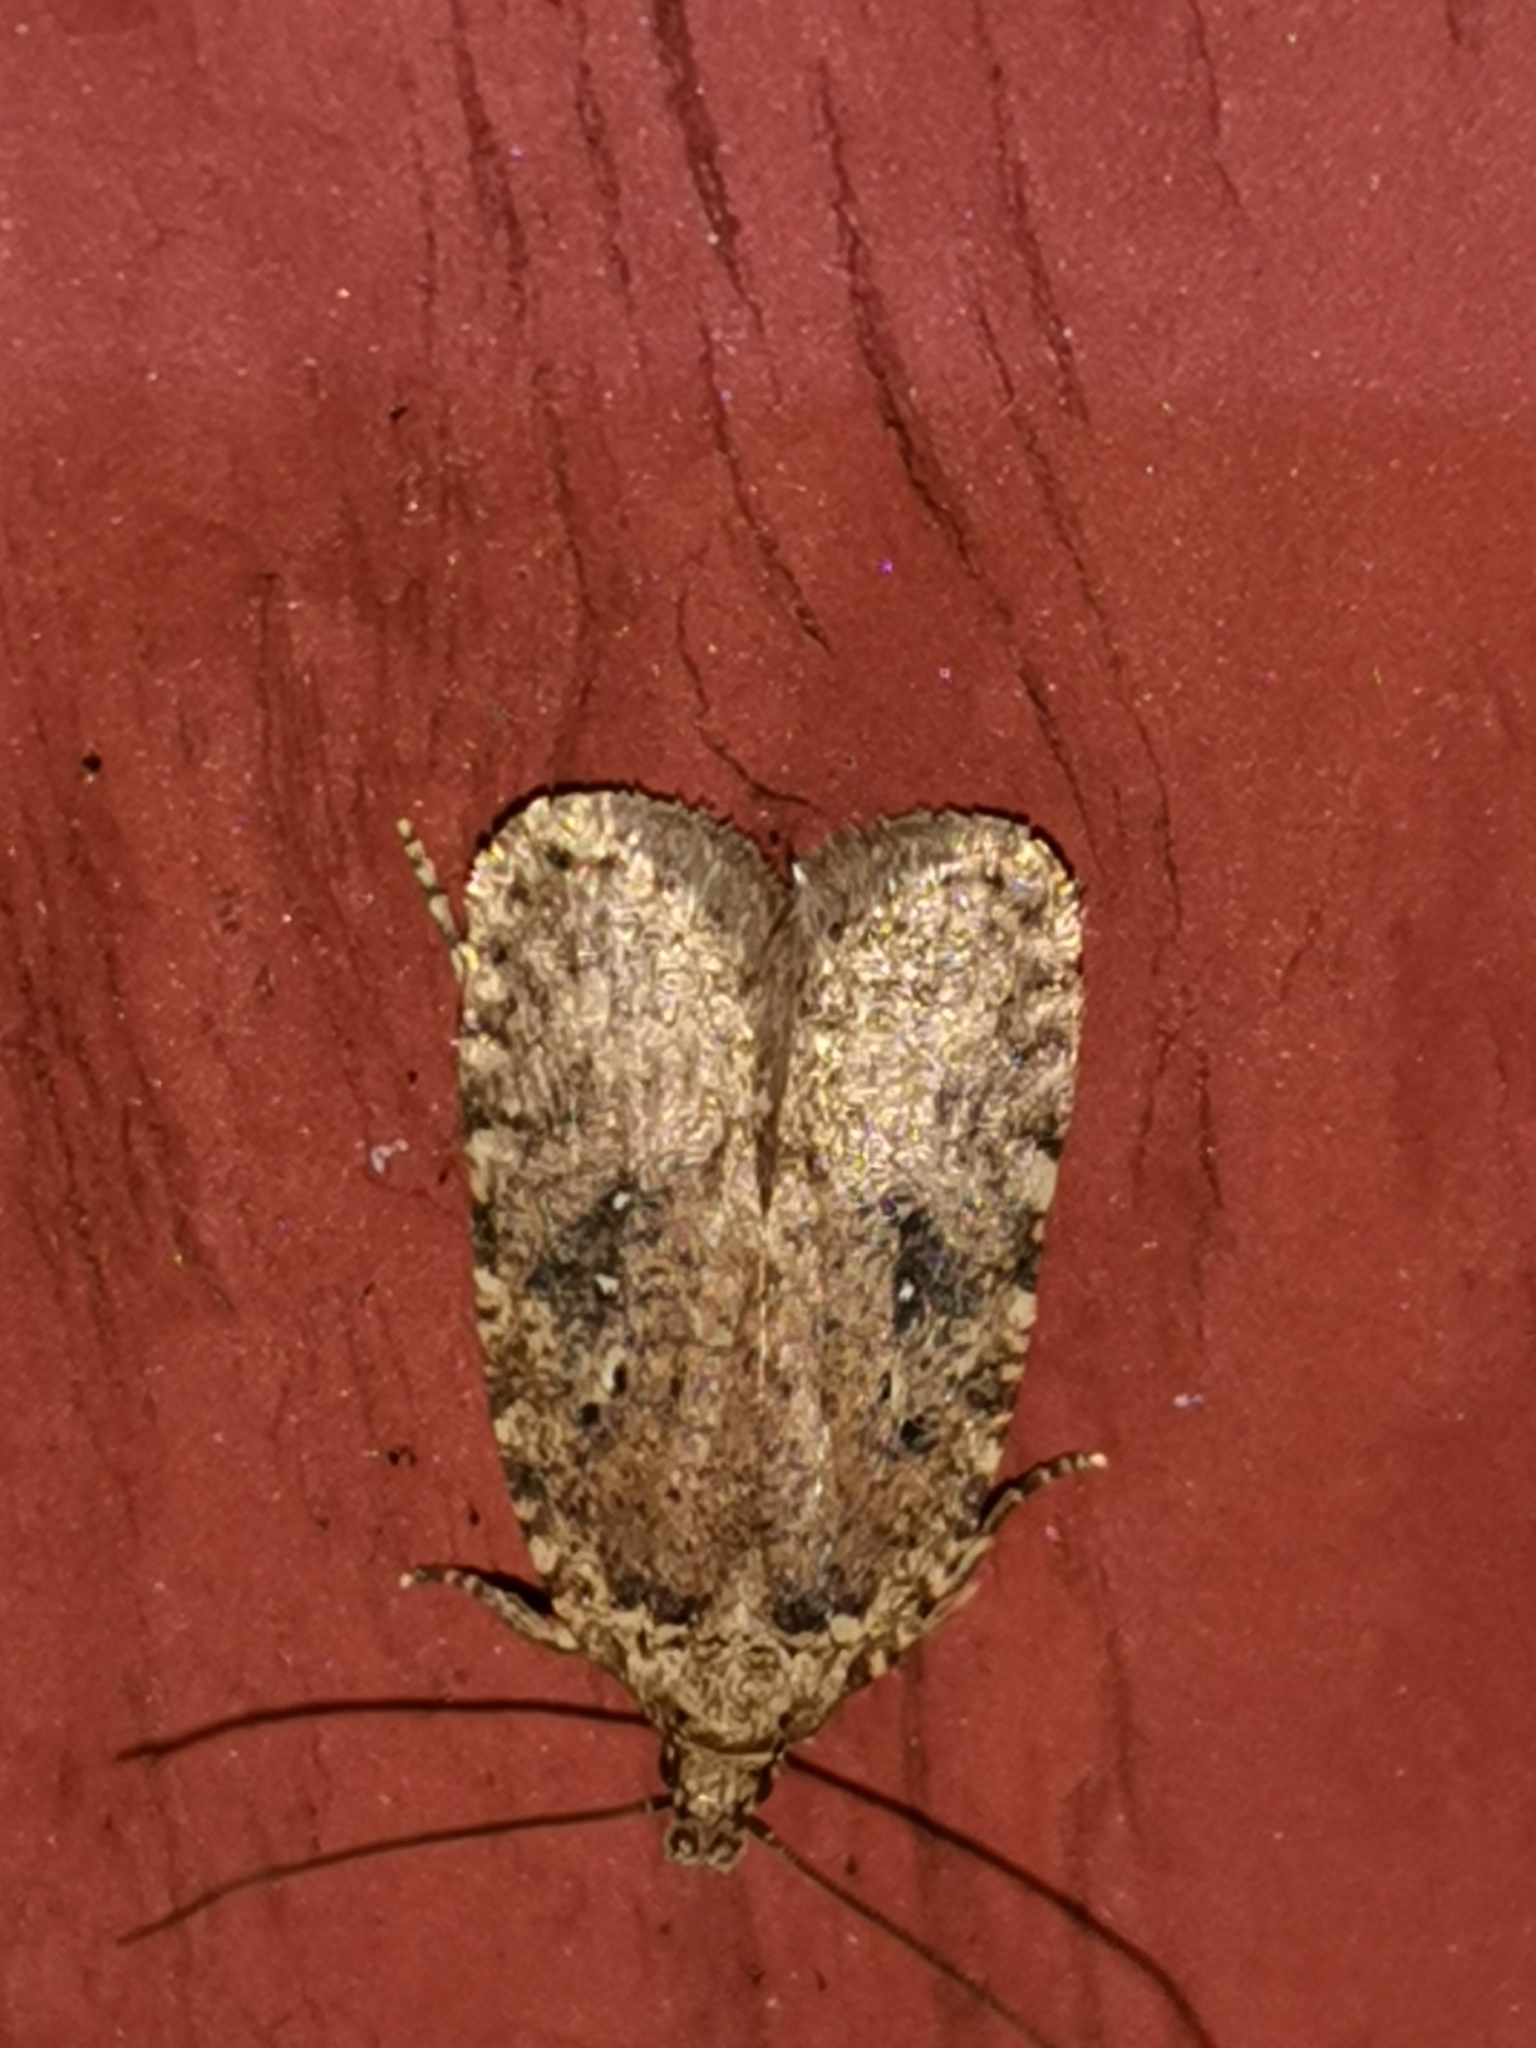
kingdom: Animalia
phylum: Arthropoda
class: Insecta
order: Lepidoptera
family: Depressariidae
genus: Agonopterix
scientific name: Agonopterix heracliana
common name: Common flat-body
